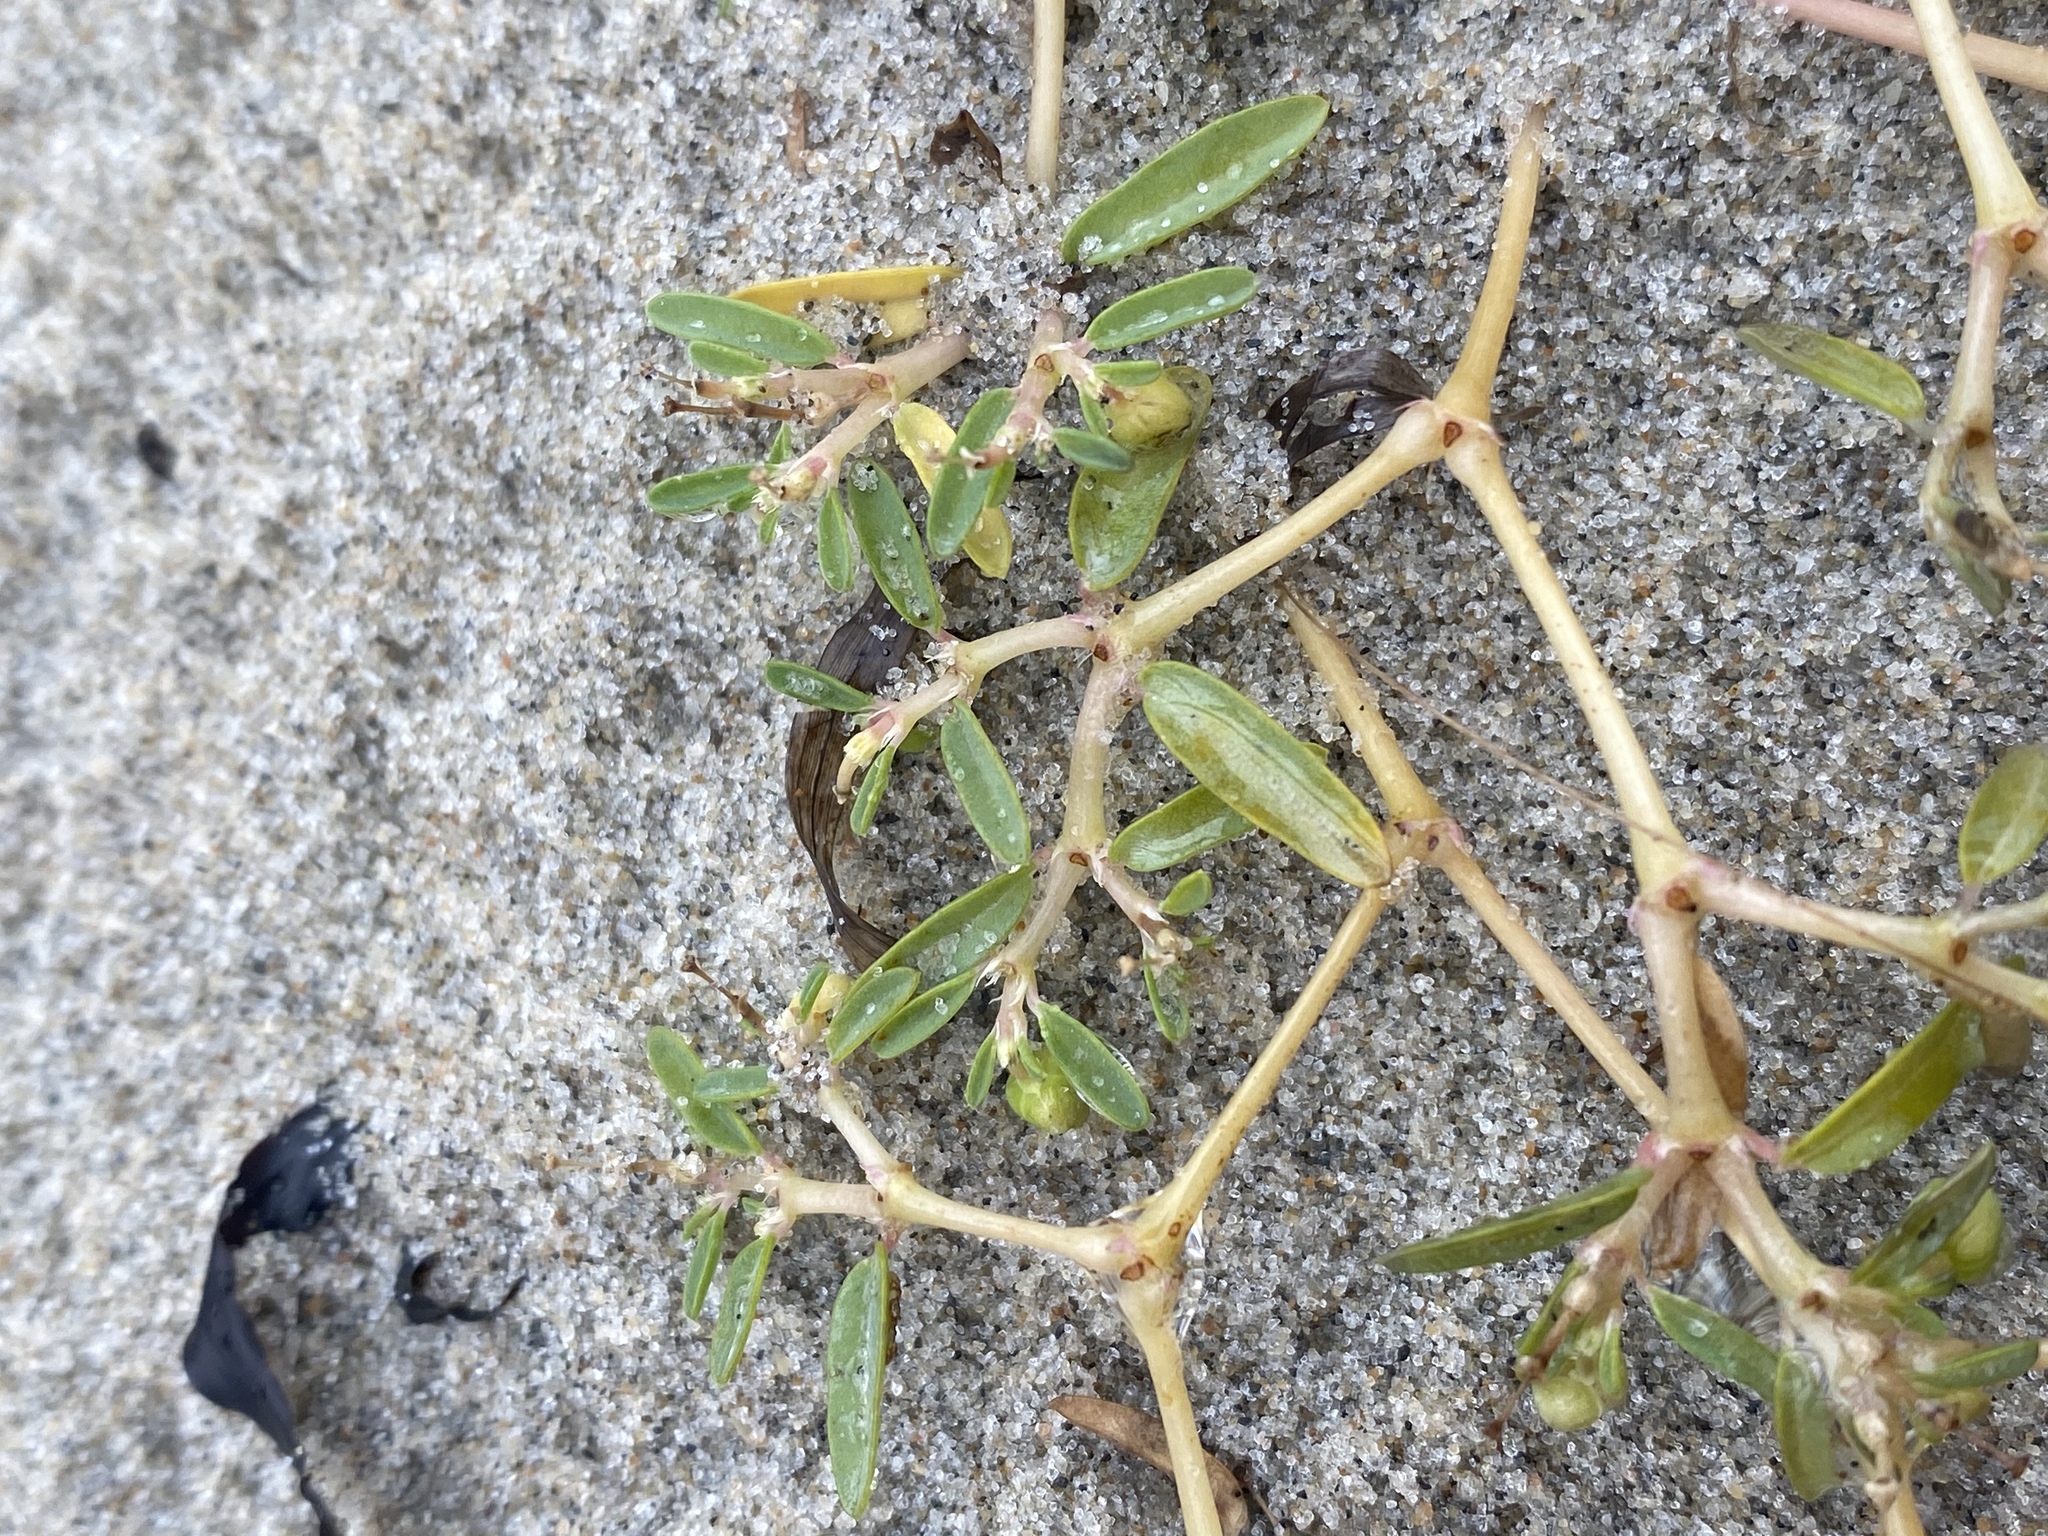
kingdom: Plantae
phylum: Tracheophyta
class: Magnoliopsida
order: Malpighiales
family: Euphorbiaceae
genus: Euphorbia
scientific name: Euphorbia polygonifolia
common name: Knotweed spurge
